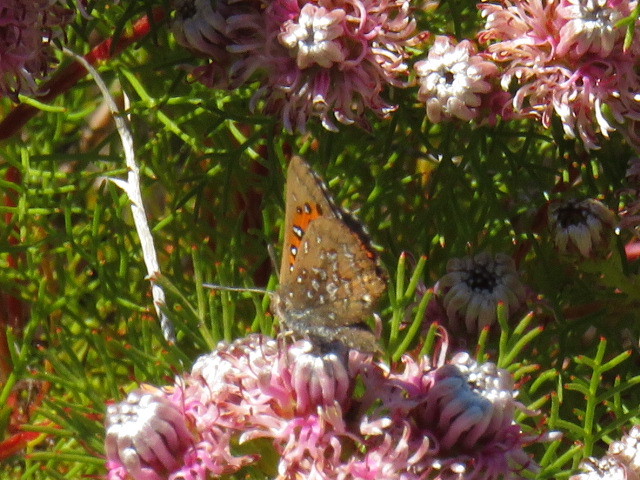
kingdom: Animalia
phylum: Arthropoda
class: Insecta
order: Lepidoptera
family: Lycaenidae
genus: Aloeides
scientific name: Aloeides thyra
